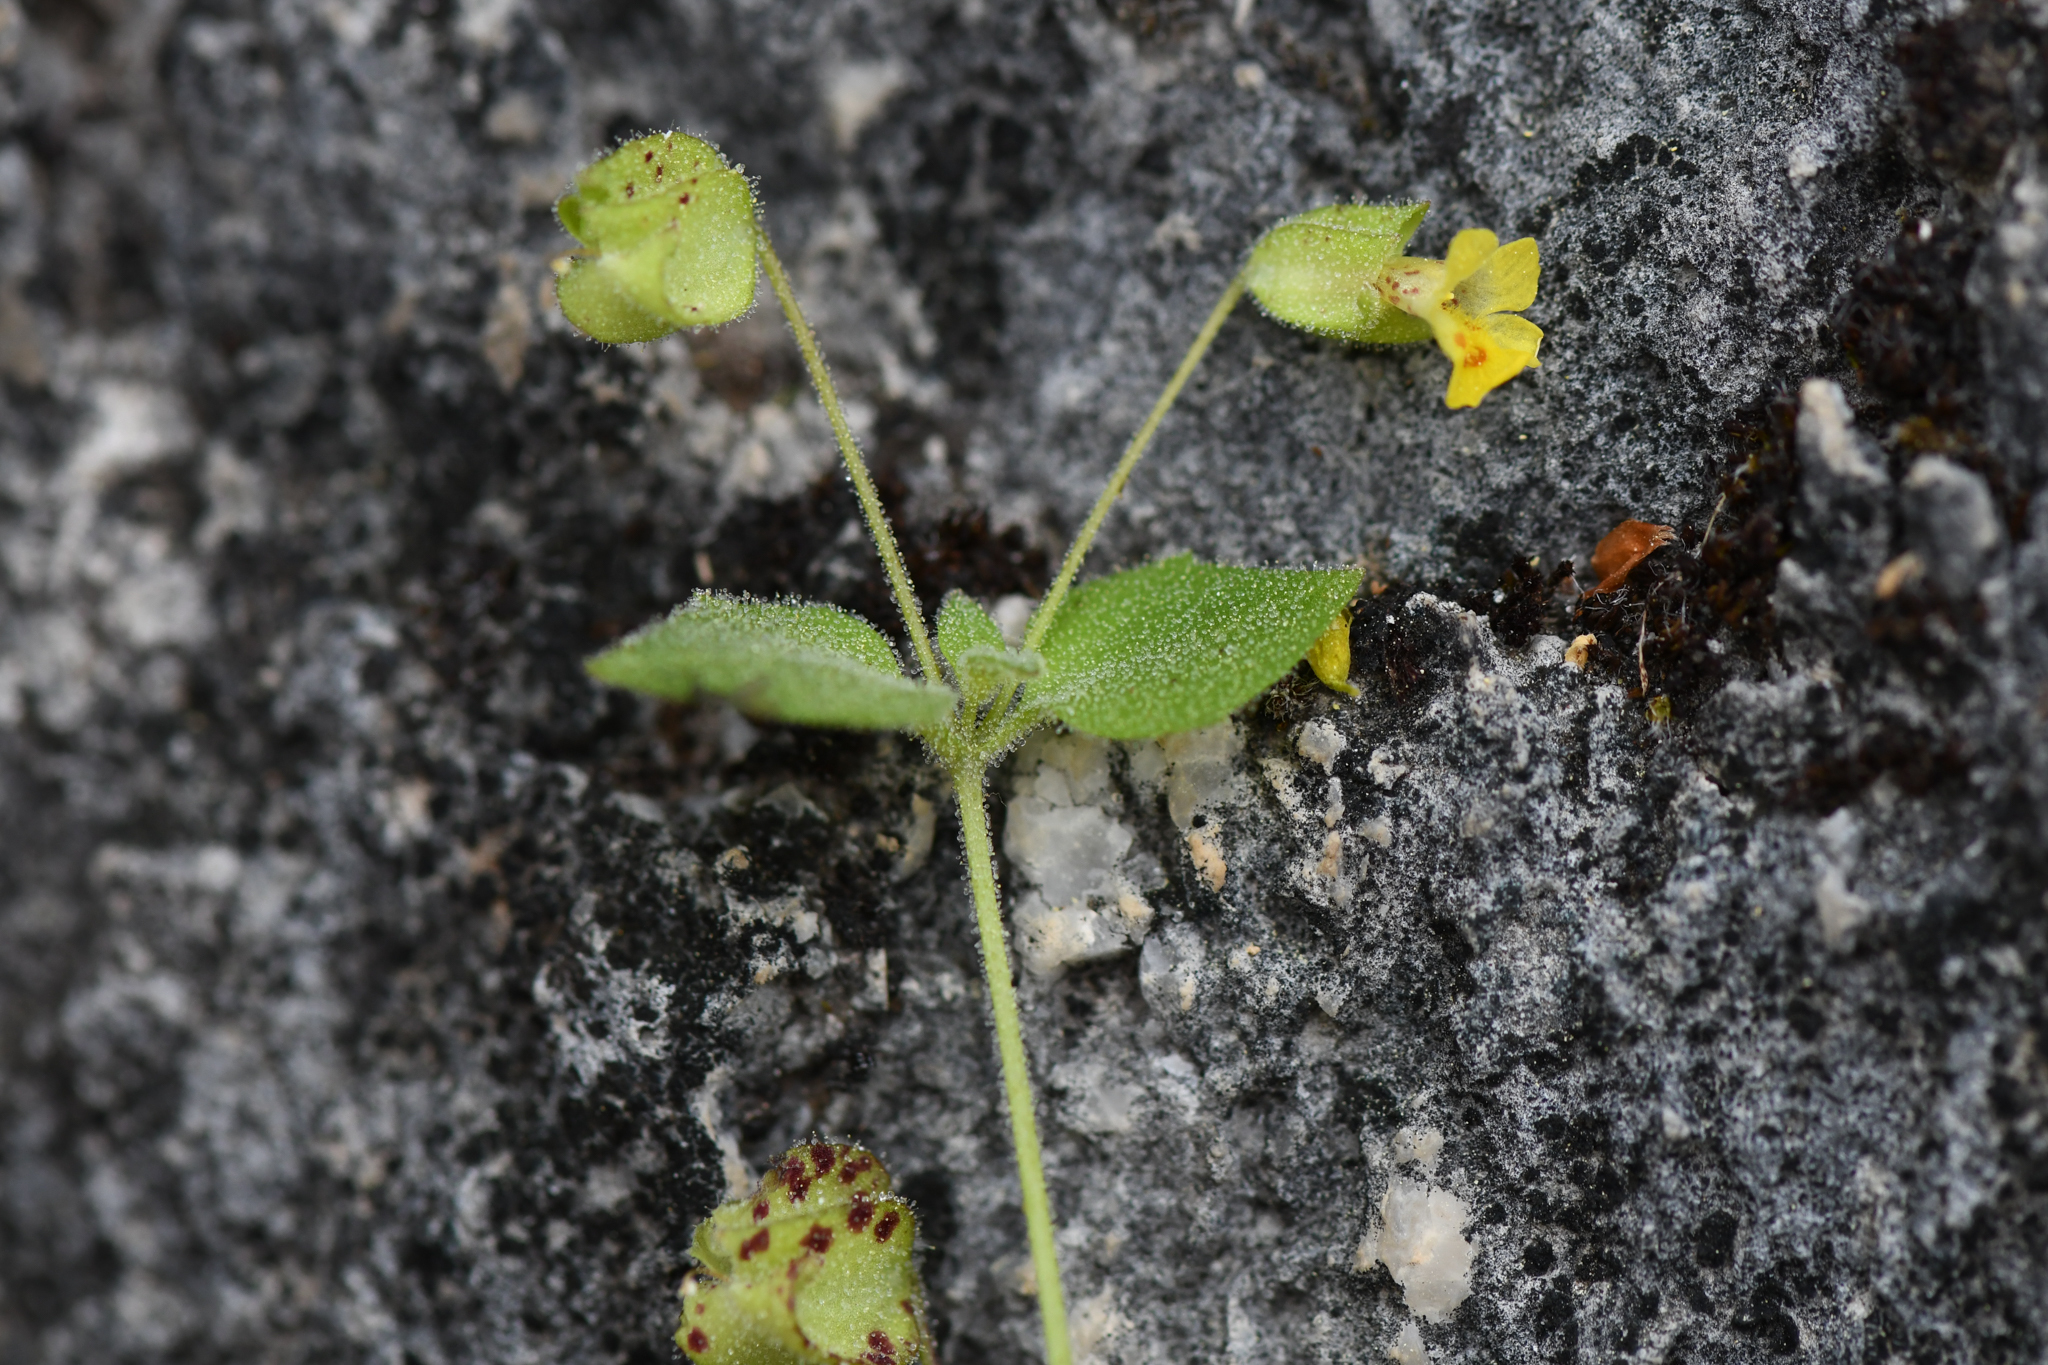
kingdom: Plantae
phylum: Tracheophyta
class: Magnoliopsida
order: Lamiales
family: Phrymaceae
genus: Erythranthe
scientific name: Erythranthe pardalis
